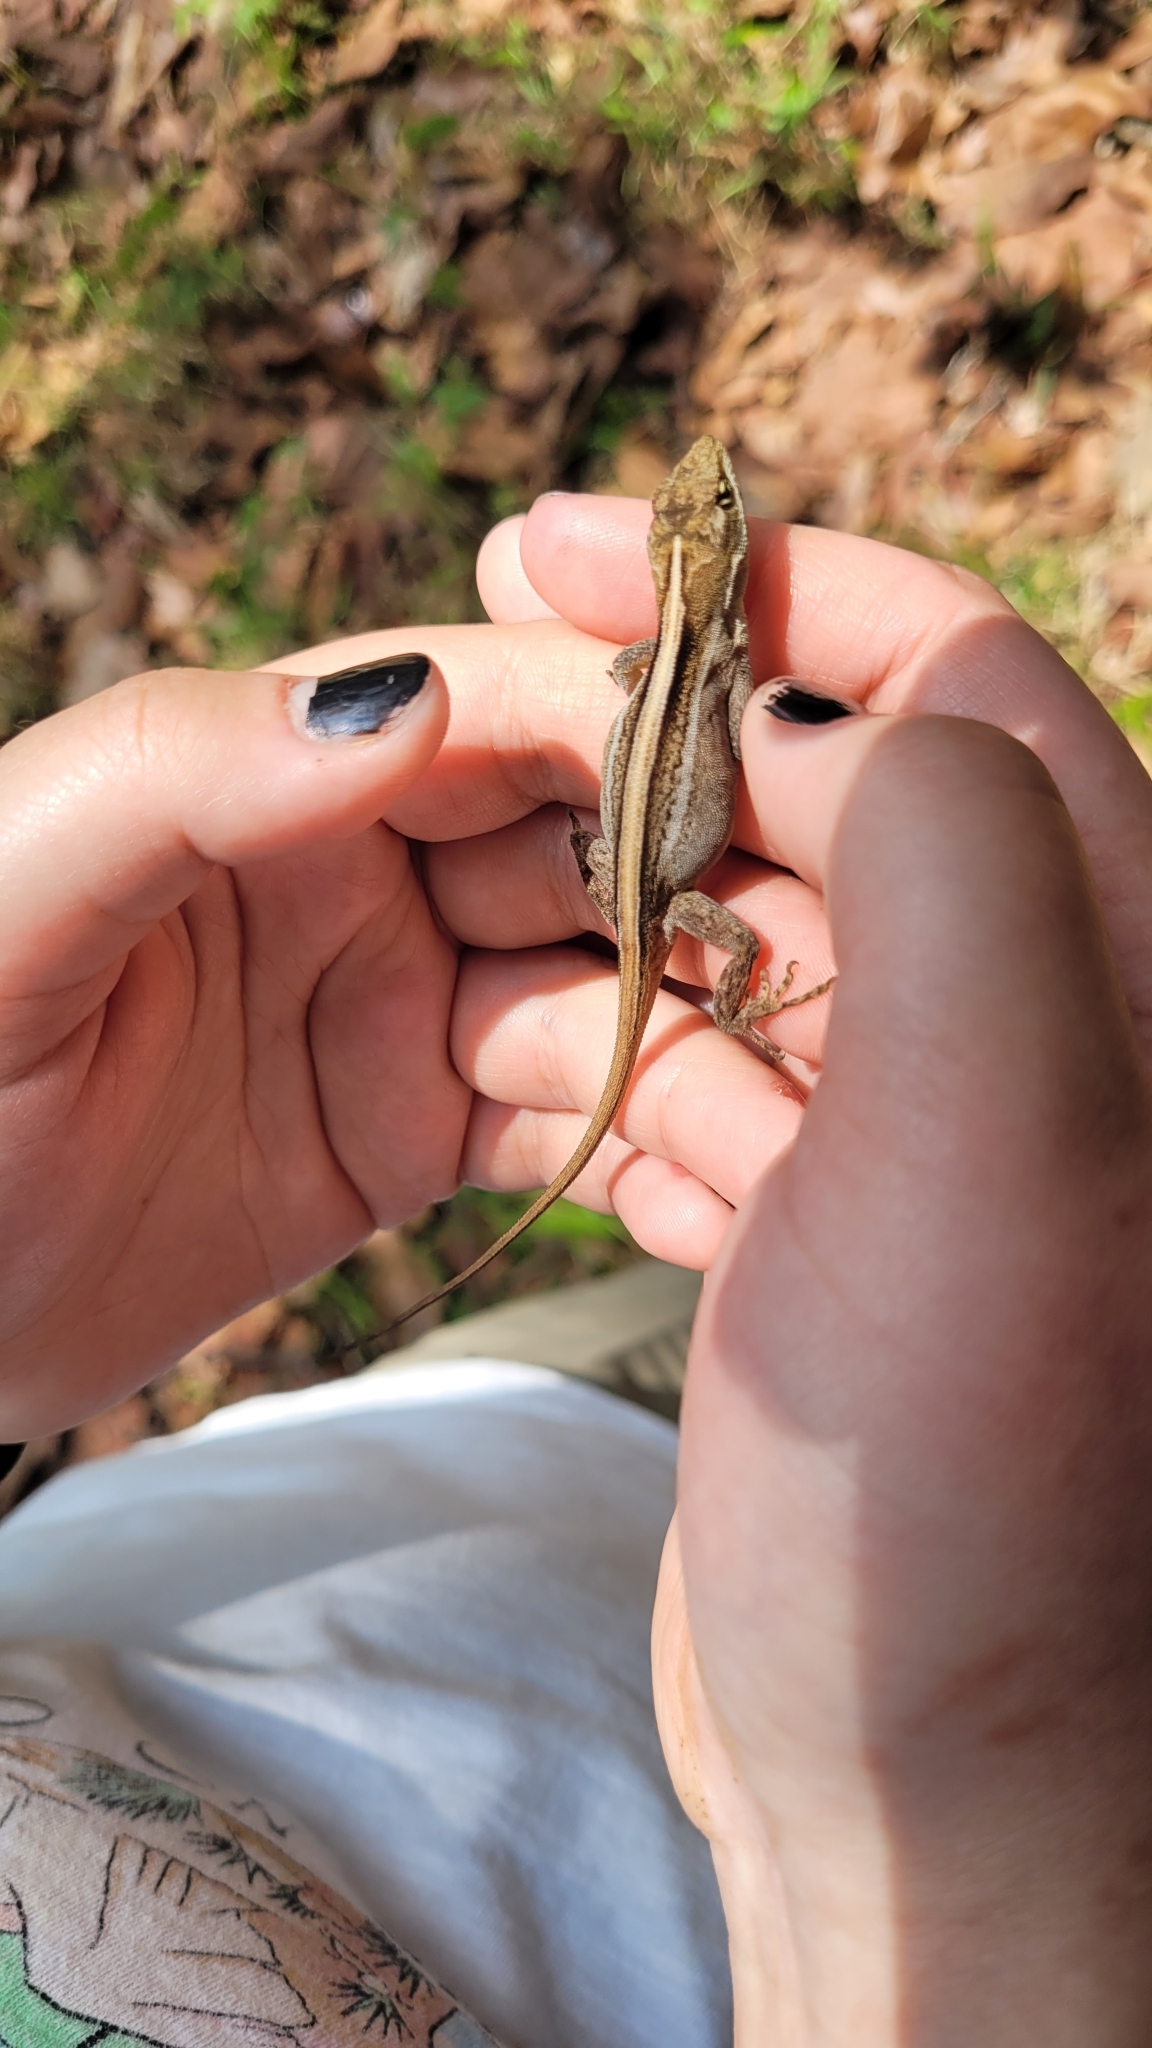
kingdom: Animalia
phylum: Chordata
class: Squamata
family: Dactyloidae
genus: Anolis
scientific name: Anolis caceresae
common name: Berta’s anole
